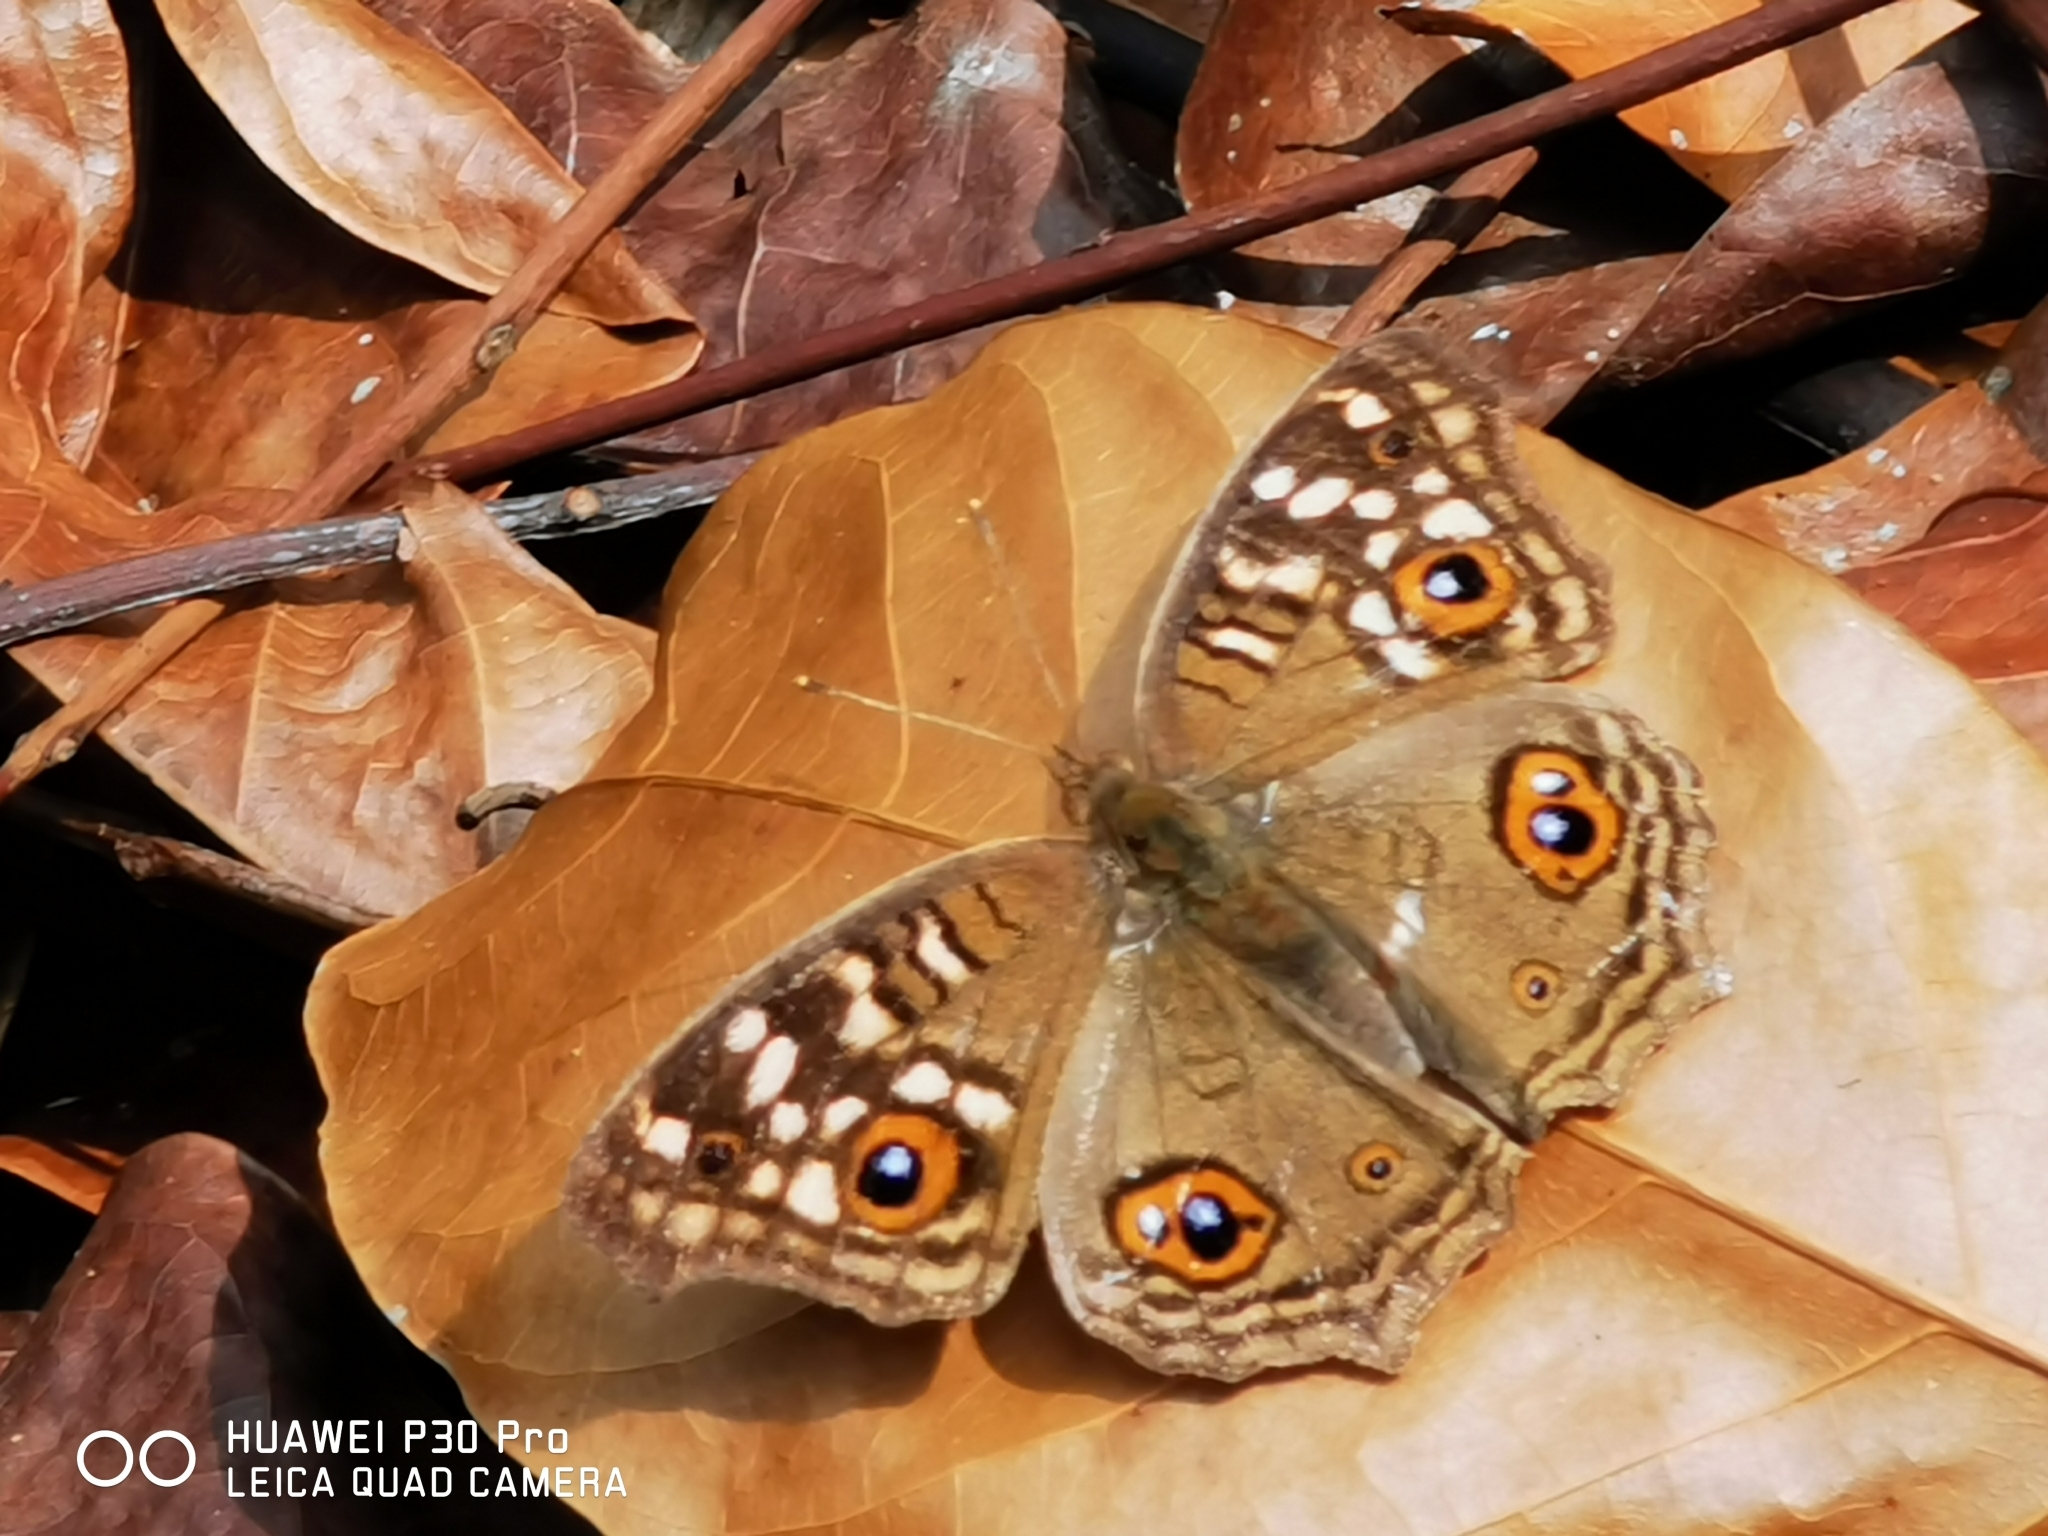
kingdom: Animalia
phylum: Arthropoda
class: Insecta
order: Lepidoptera
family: Nymphalidae
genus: Junonia
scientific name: Junonia lemonias
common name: Lemon pansy
